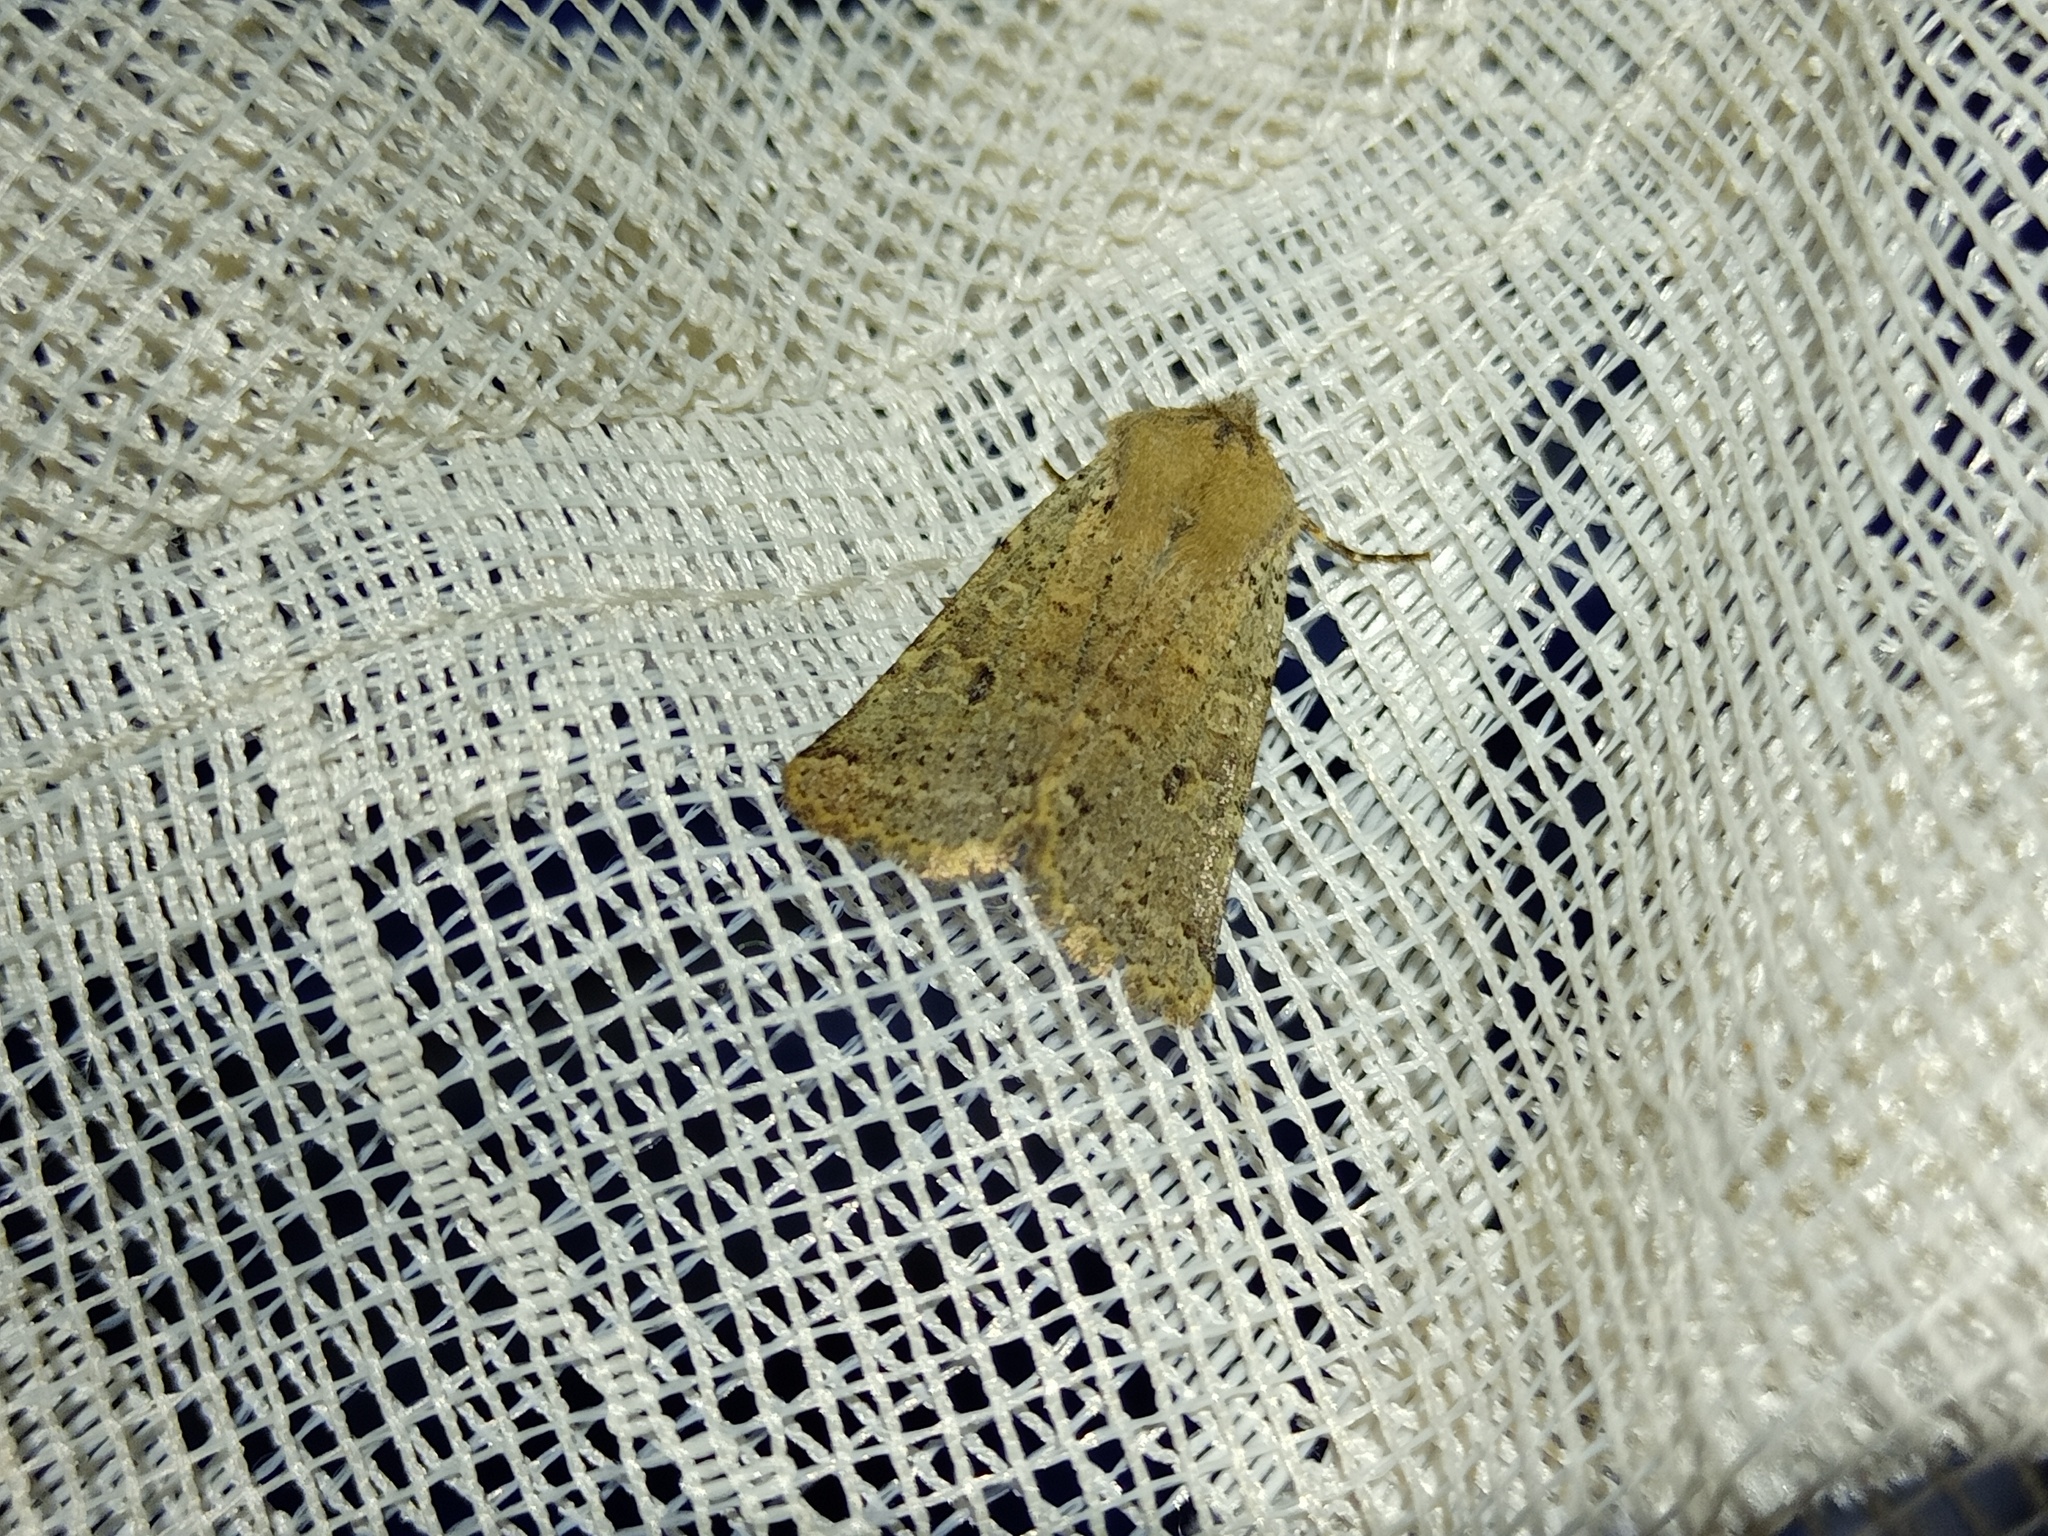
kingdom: Animalia
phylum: Arthropoda
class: Insecta
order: Lepidoptera
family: Noctuidae
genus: Agrochola
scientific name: Agrochola ruticilla
